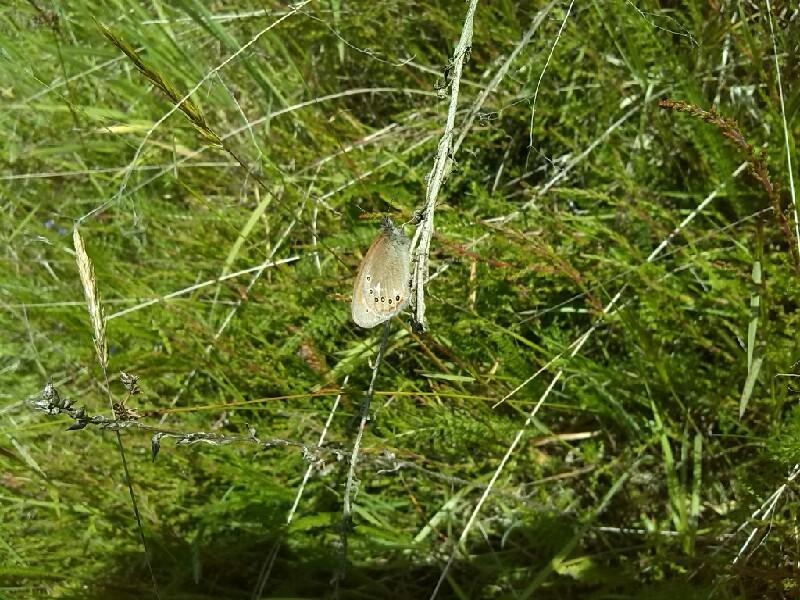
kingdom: Animalia
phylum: Arthropoda
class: Insecta
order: Lepidoptera
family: Nymphalidae
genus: Coenonympha
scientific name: Coenonympha iphis
